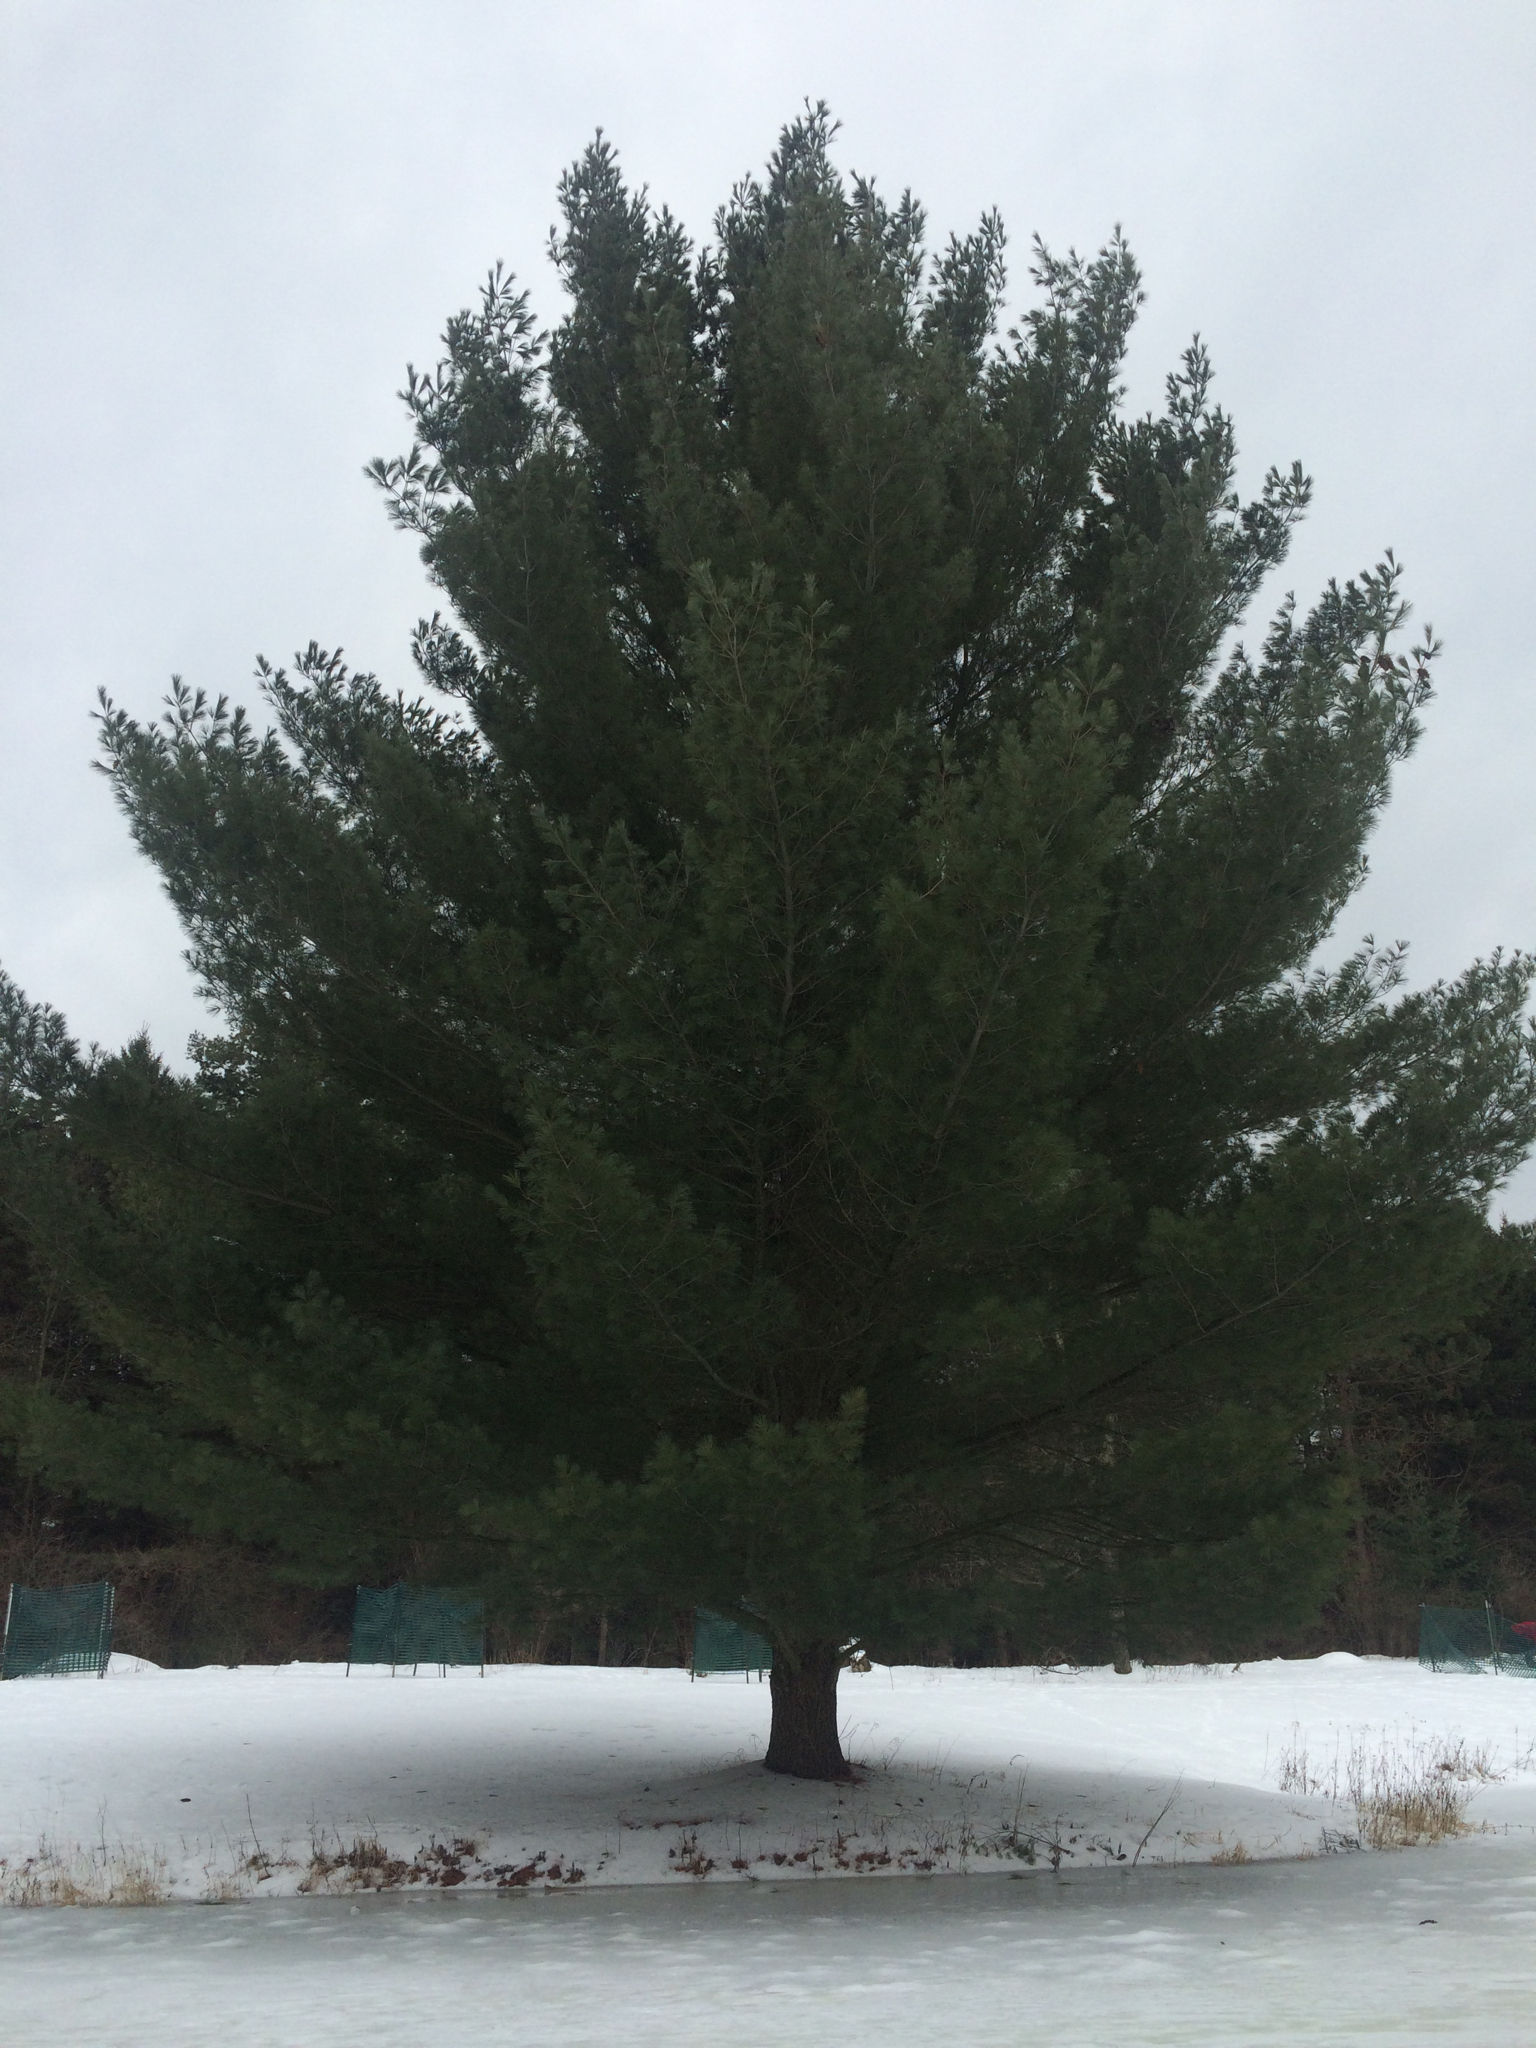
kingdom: Plantae
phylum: Tracheophyta
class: Pinopsida
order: Pinales
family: Pinaceae
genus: Pinus
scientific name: Pinus strobus
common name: Weymouth pine
